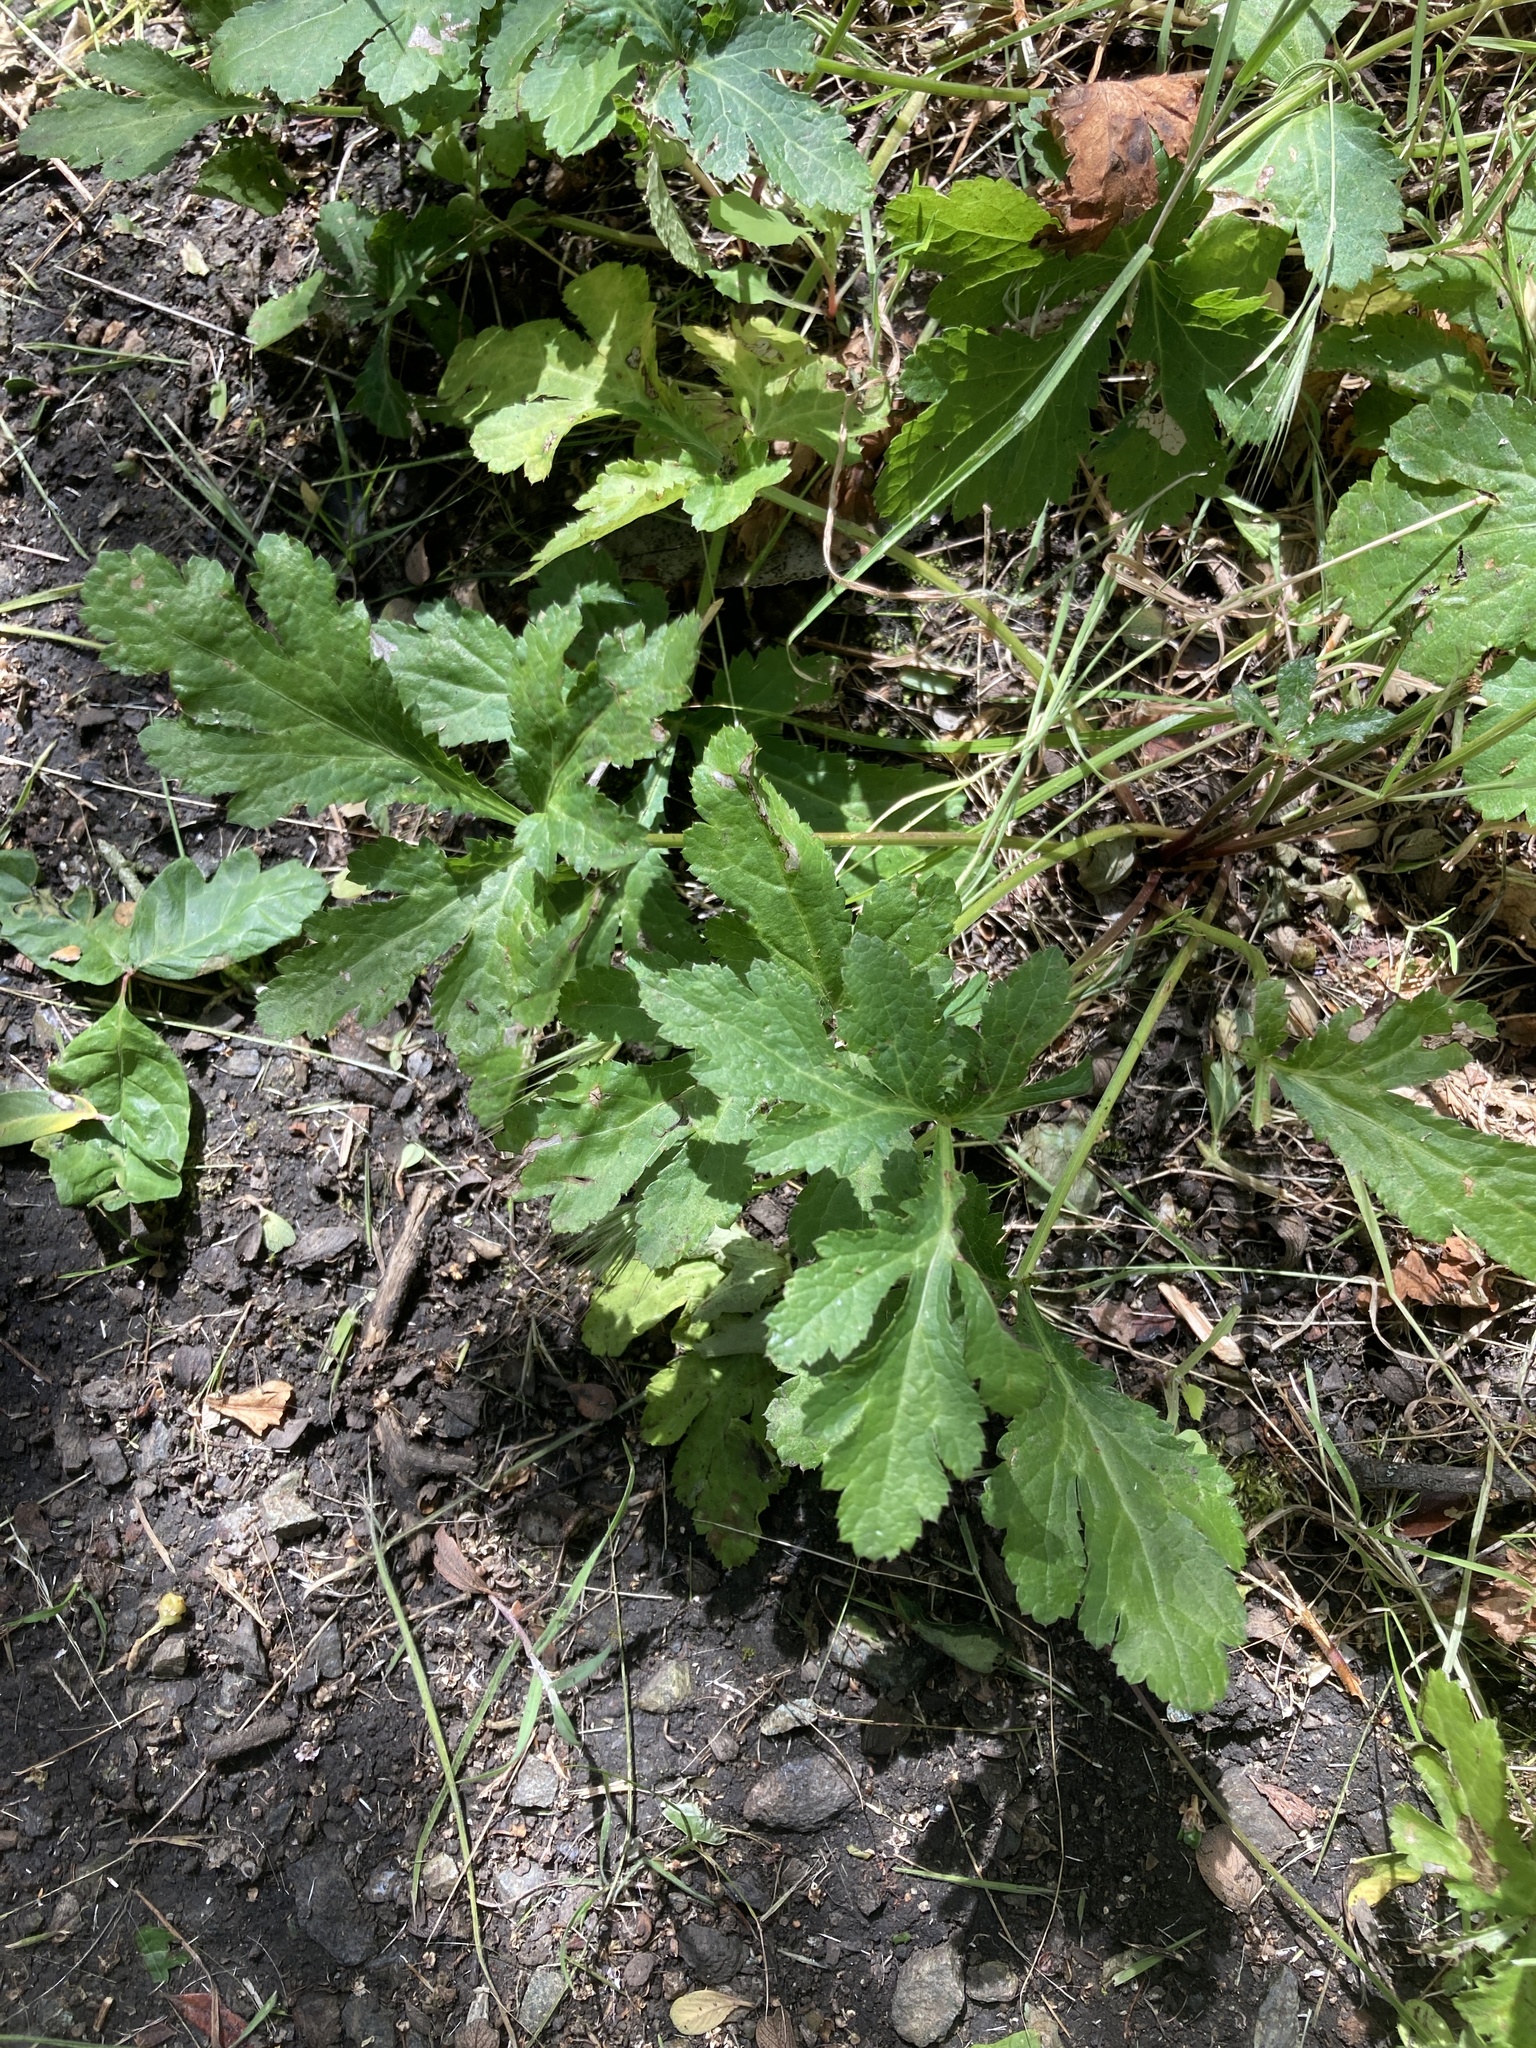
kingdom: Plantae
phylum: Tracheophyta
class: Magnoliopsida
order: Apiales
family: Apiaceae
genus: Sanicula
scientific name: Sanicula hoffmannii
